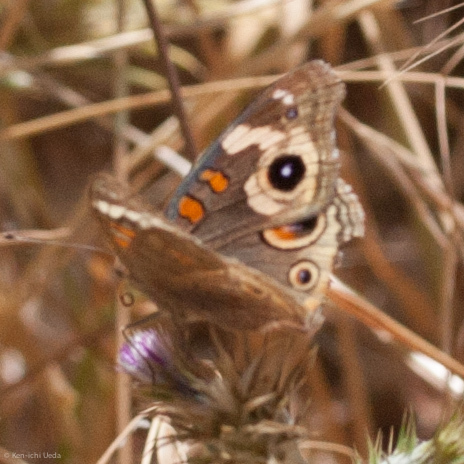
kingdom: Animalia
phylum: Arthropoda
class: Insecta
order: Lepidoptera
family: Nymphalidae
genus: Junonia
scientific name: Junonia grisea
